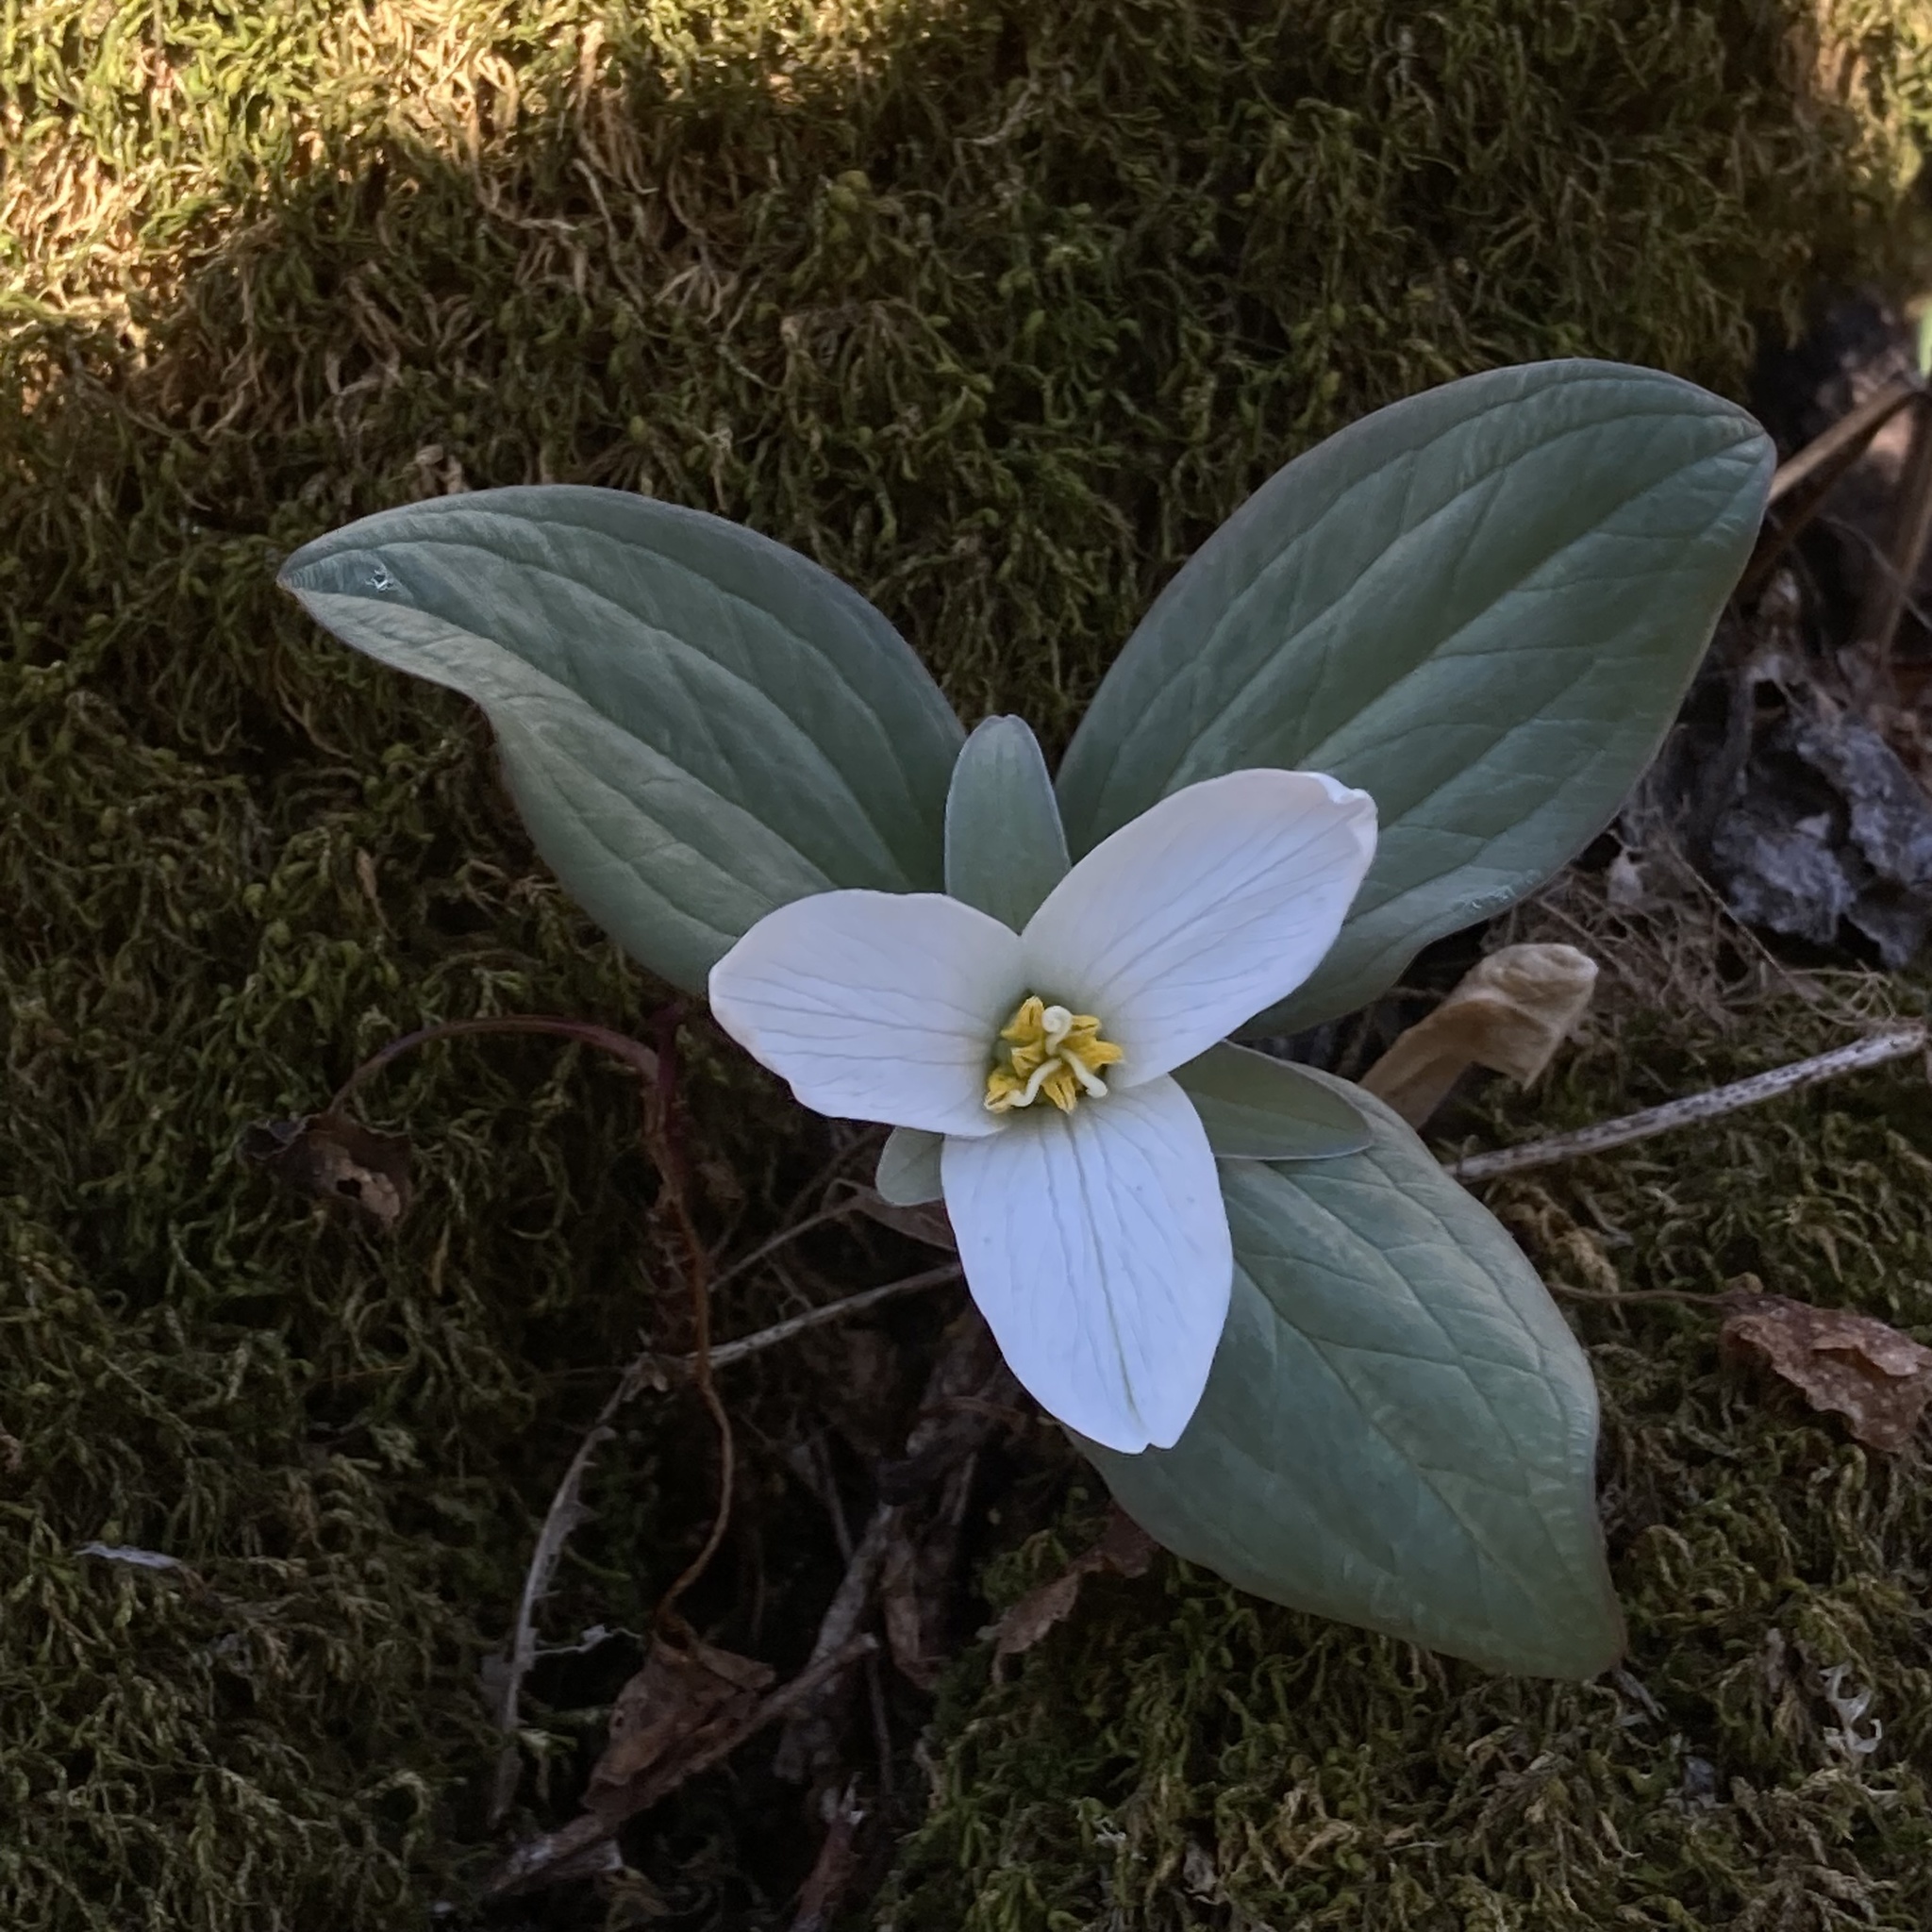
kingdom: Plantae
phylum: Tracheophyta
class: Liliopsida
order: Liliales
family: Melanthiaceae
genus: Trillium
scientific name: Trillium nivale
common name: Dwarf white trillium
